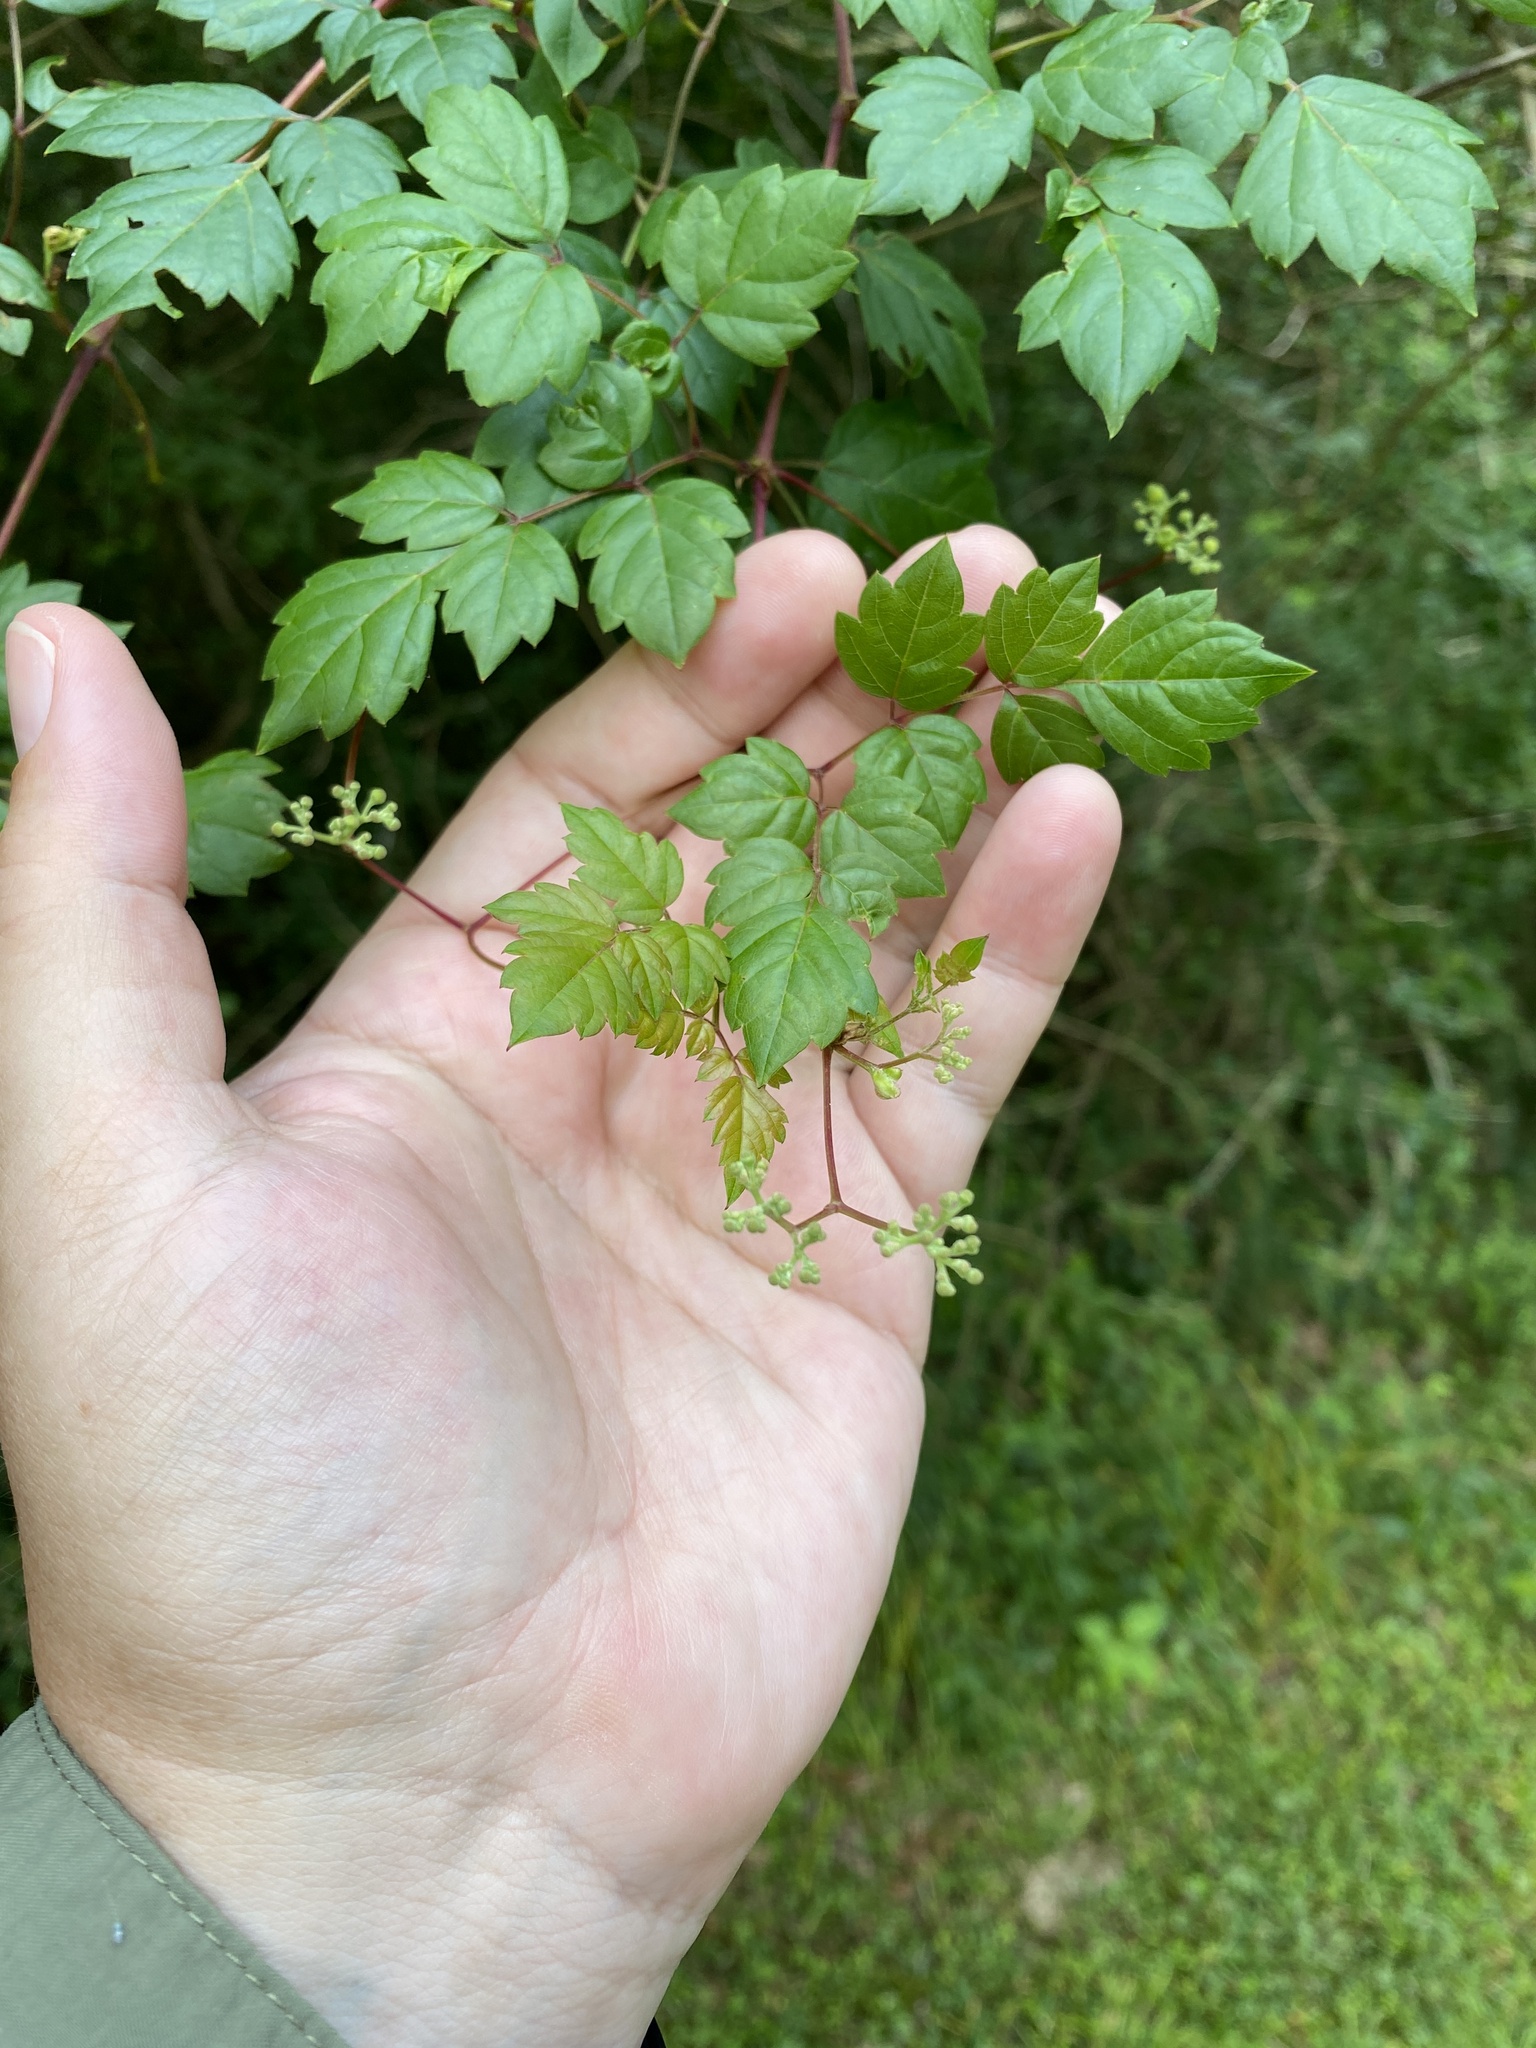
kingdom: Plantae
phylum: Tracheophyta
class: Magnoliopsida
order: Vitales
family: Vitaceae
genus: Nekemias
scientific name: Nekemias arborea
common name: Peppervine
